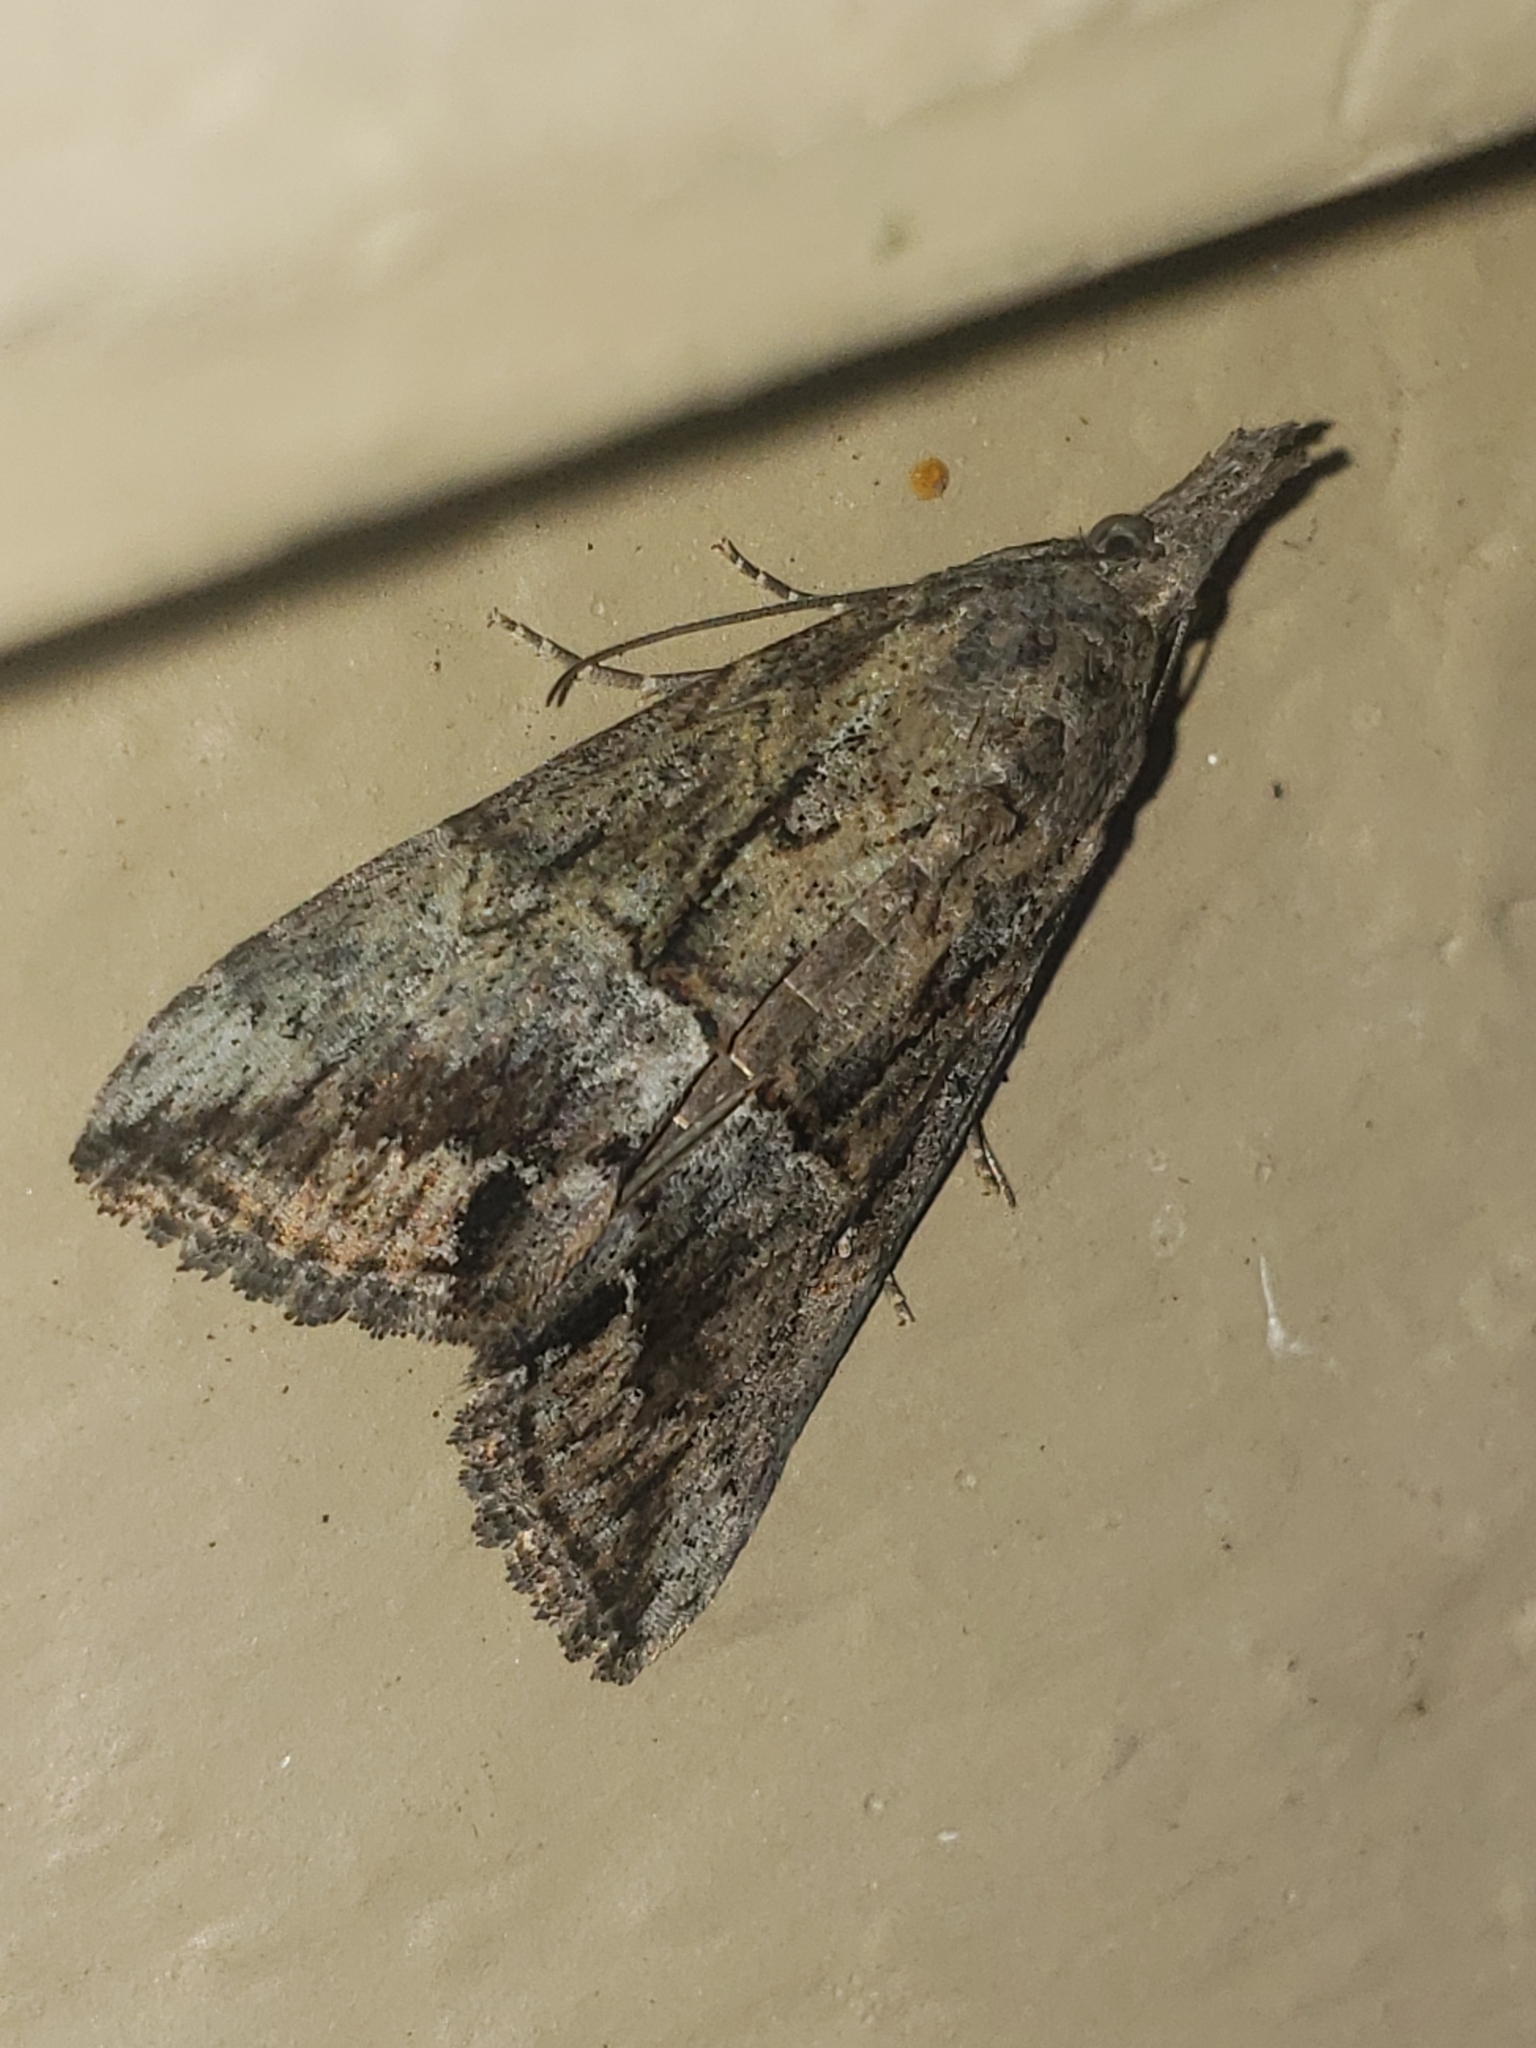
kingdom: Animalia
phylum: Arthropoda
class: Insecta
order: Lepidoptera
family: Erebidae
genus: Hypena
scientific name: Hypena scabra
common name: Green cloverworm
